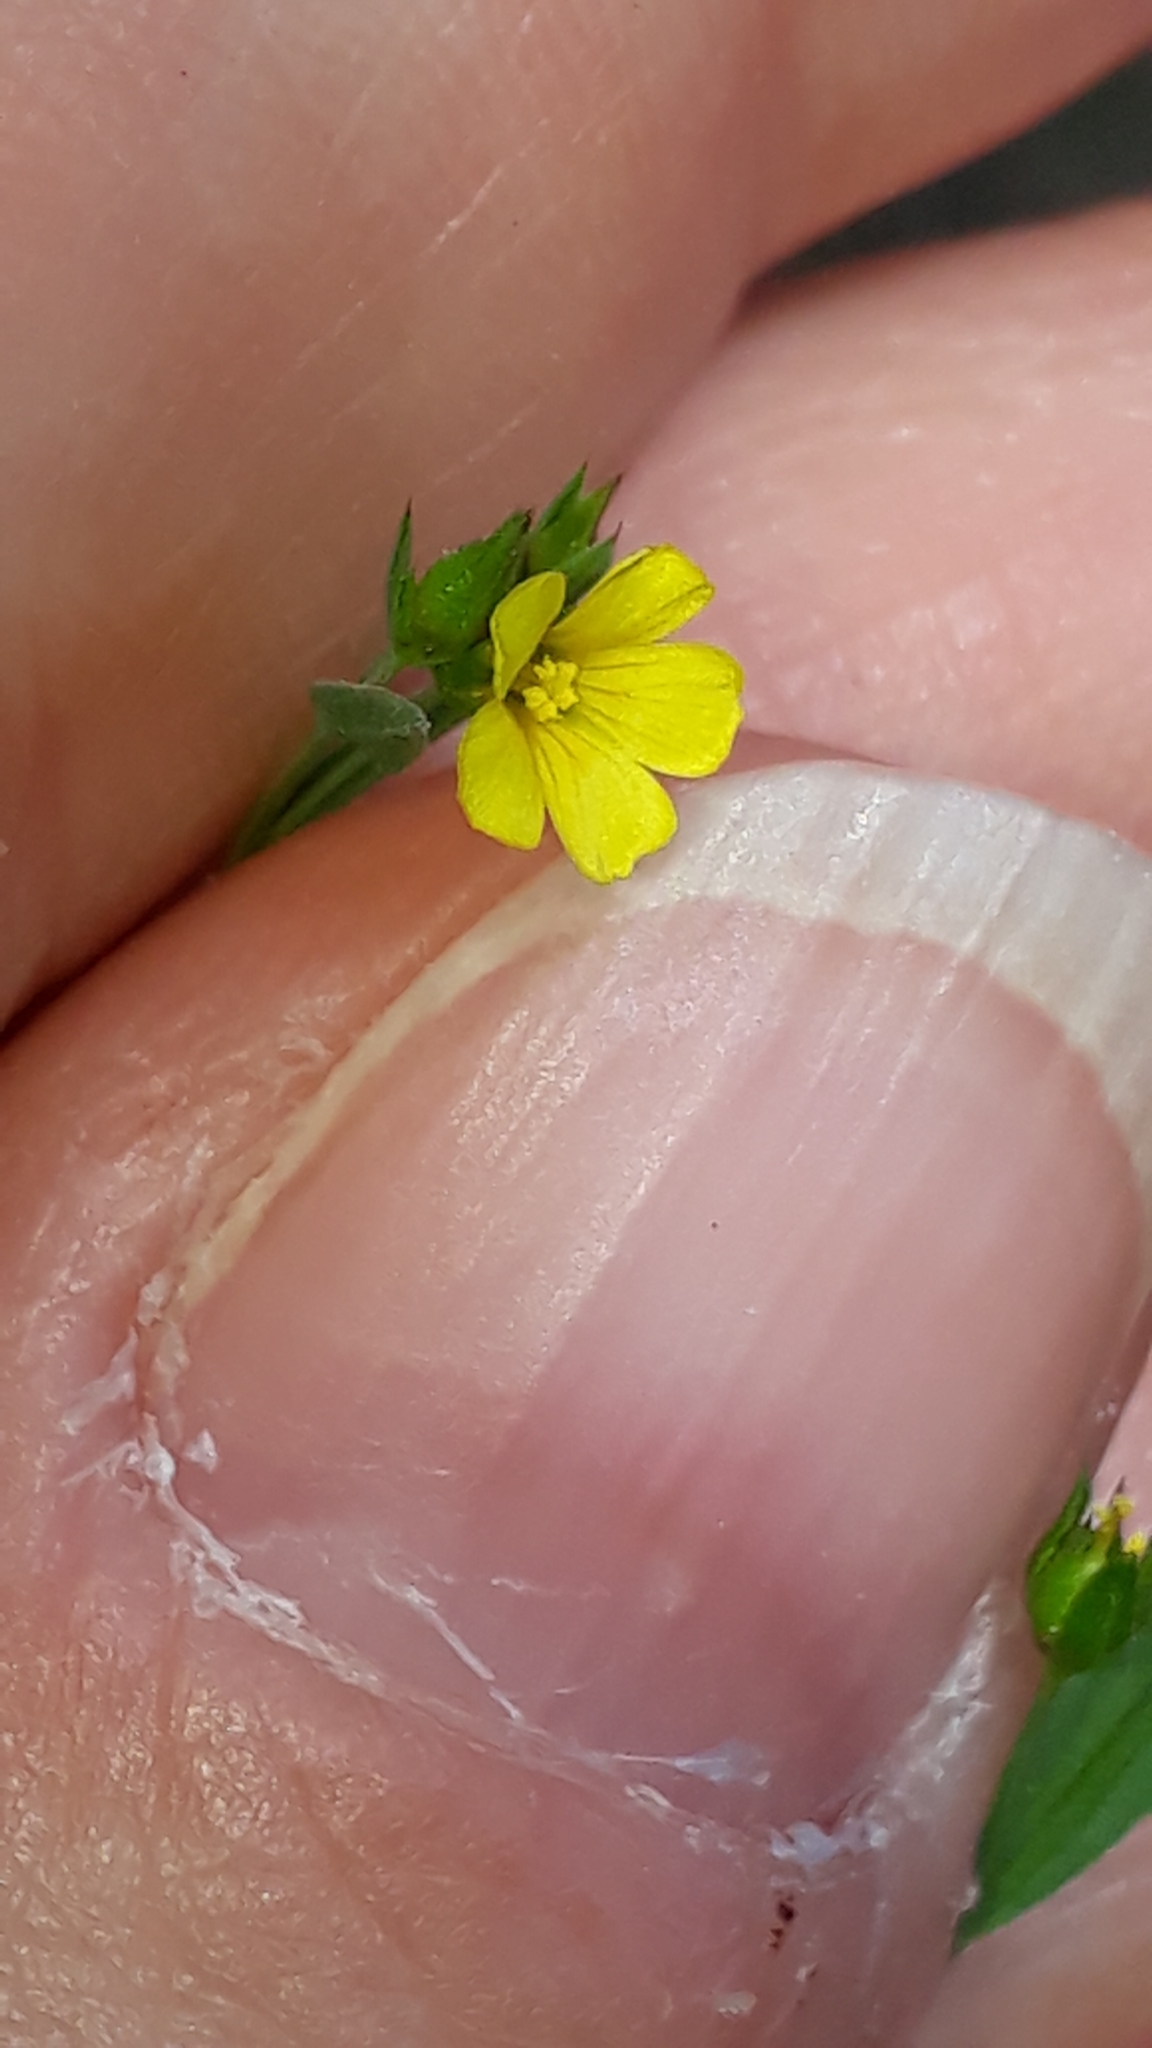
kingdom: Plantae
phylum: Tracheophyta
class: Magnoliopsida
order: Malpighiales
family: Linaceae
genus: Linum
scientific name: Linum trigynum
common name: French flax
